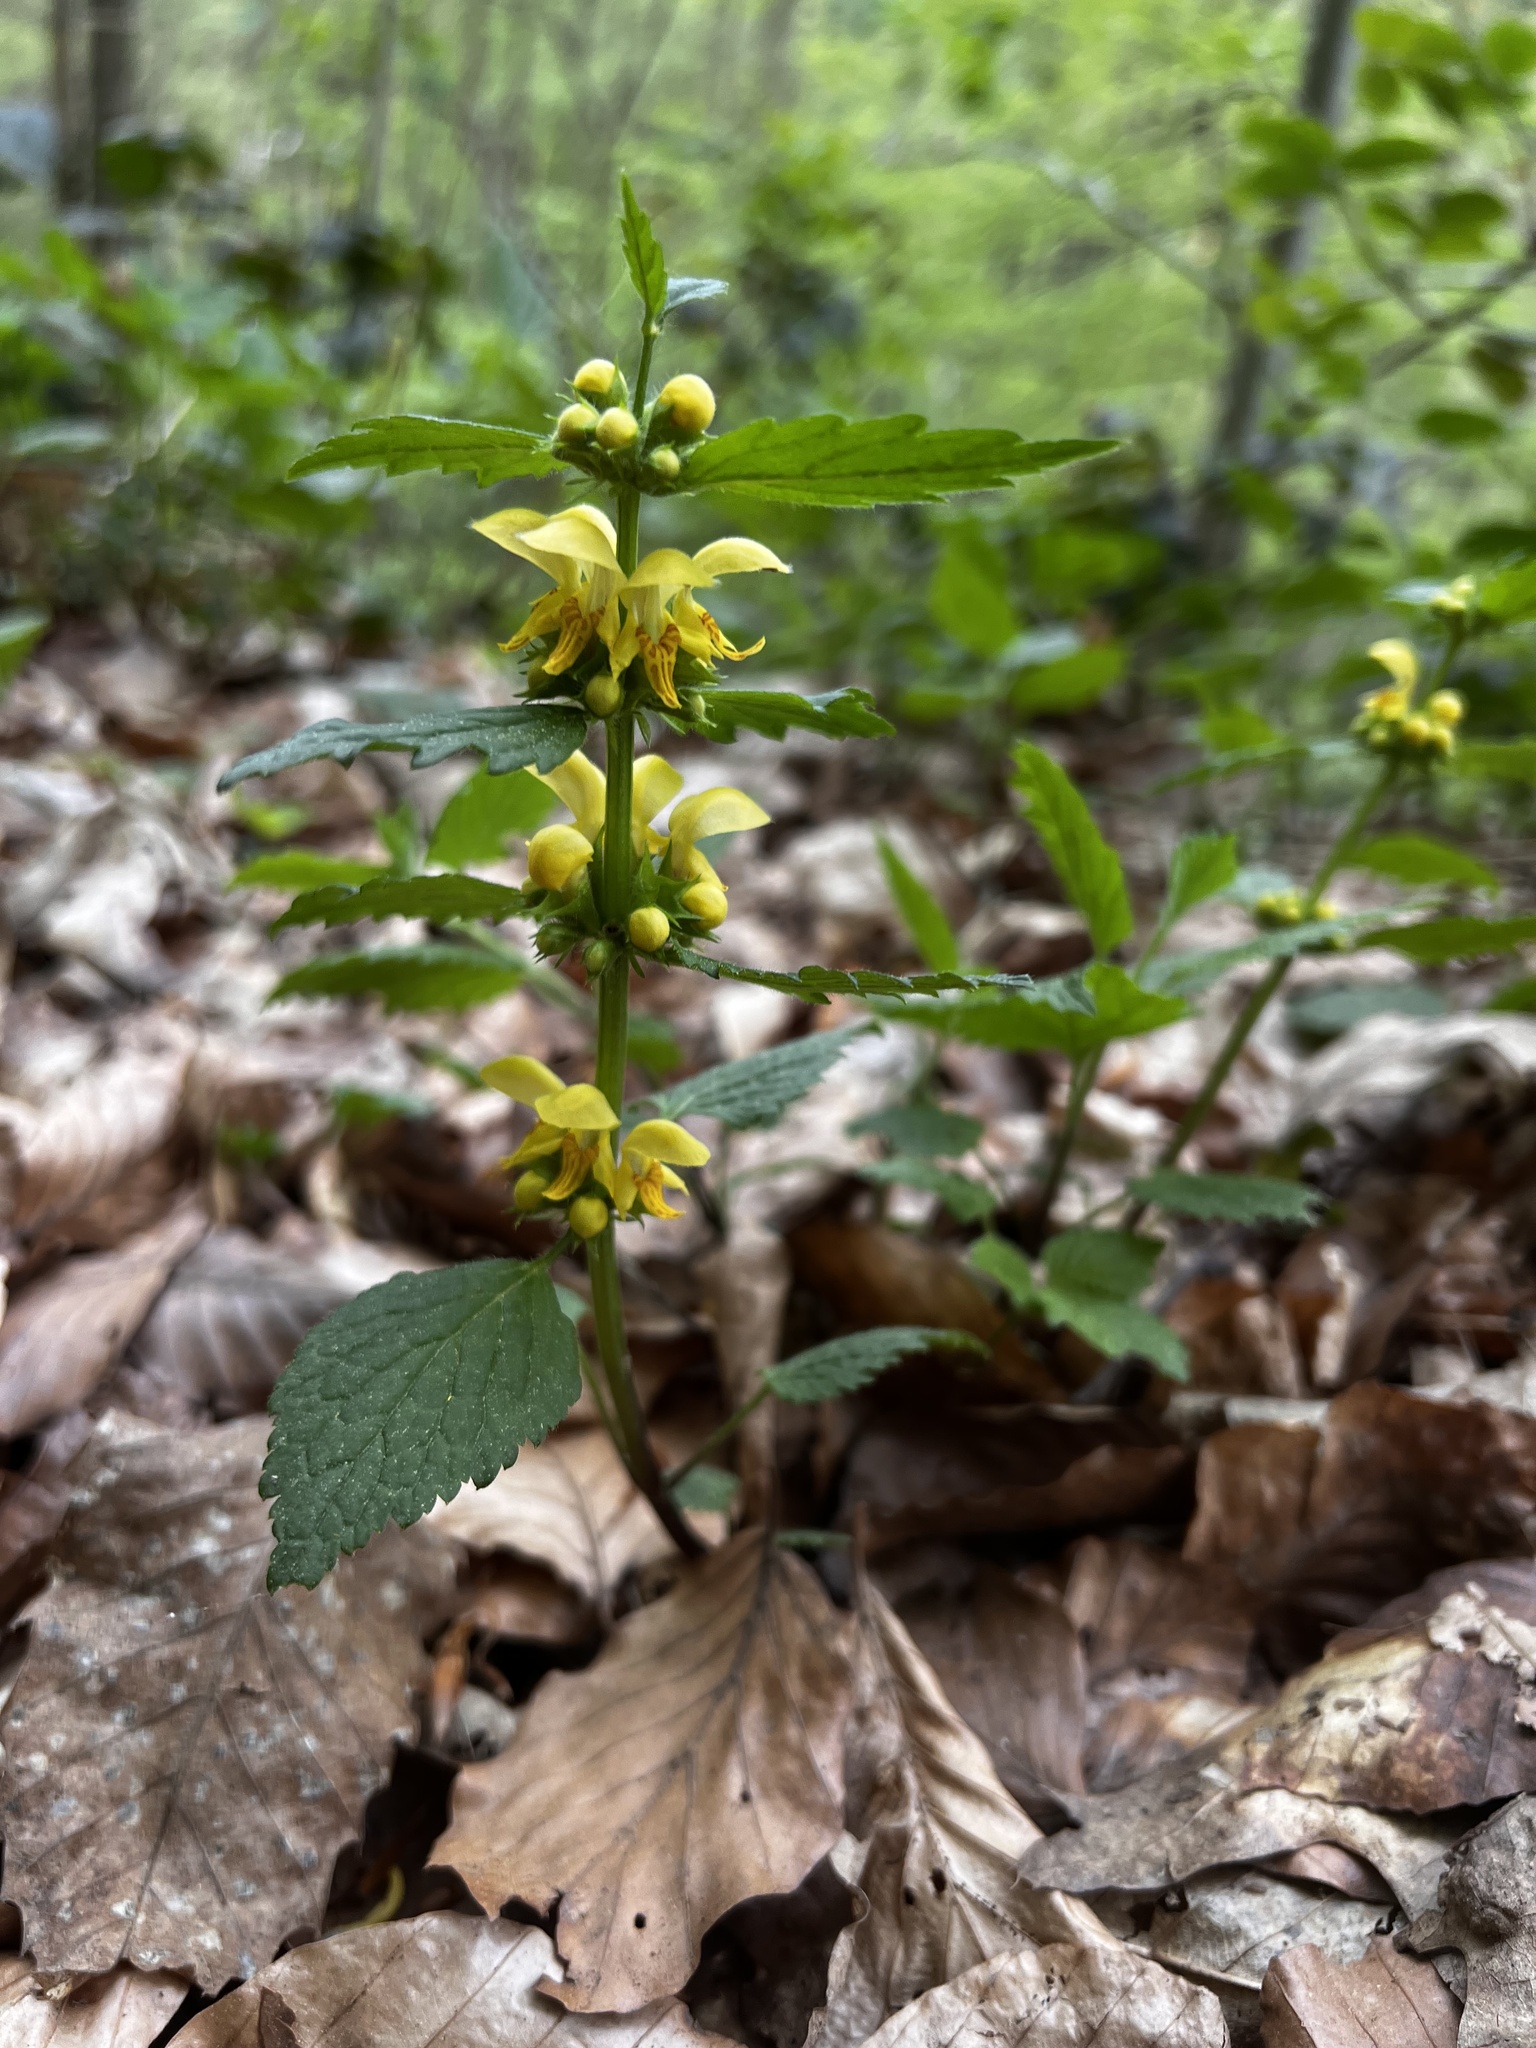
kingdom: Plantae
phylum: Tracheophyta
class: Magnoliopsida
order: Lamiales
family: Lamiaceae
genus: Lamium
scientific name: Lamium galeobdolon
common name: Yellow archangel
